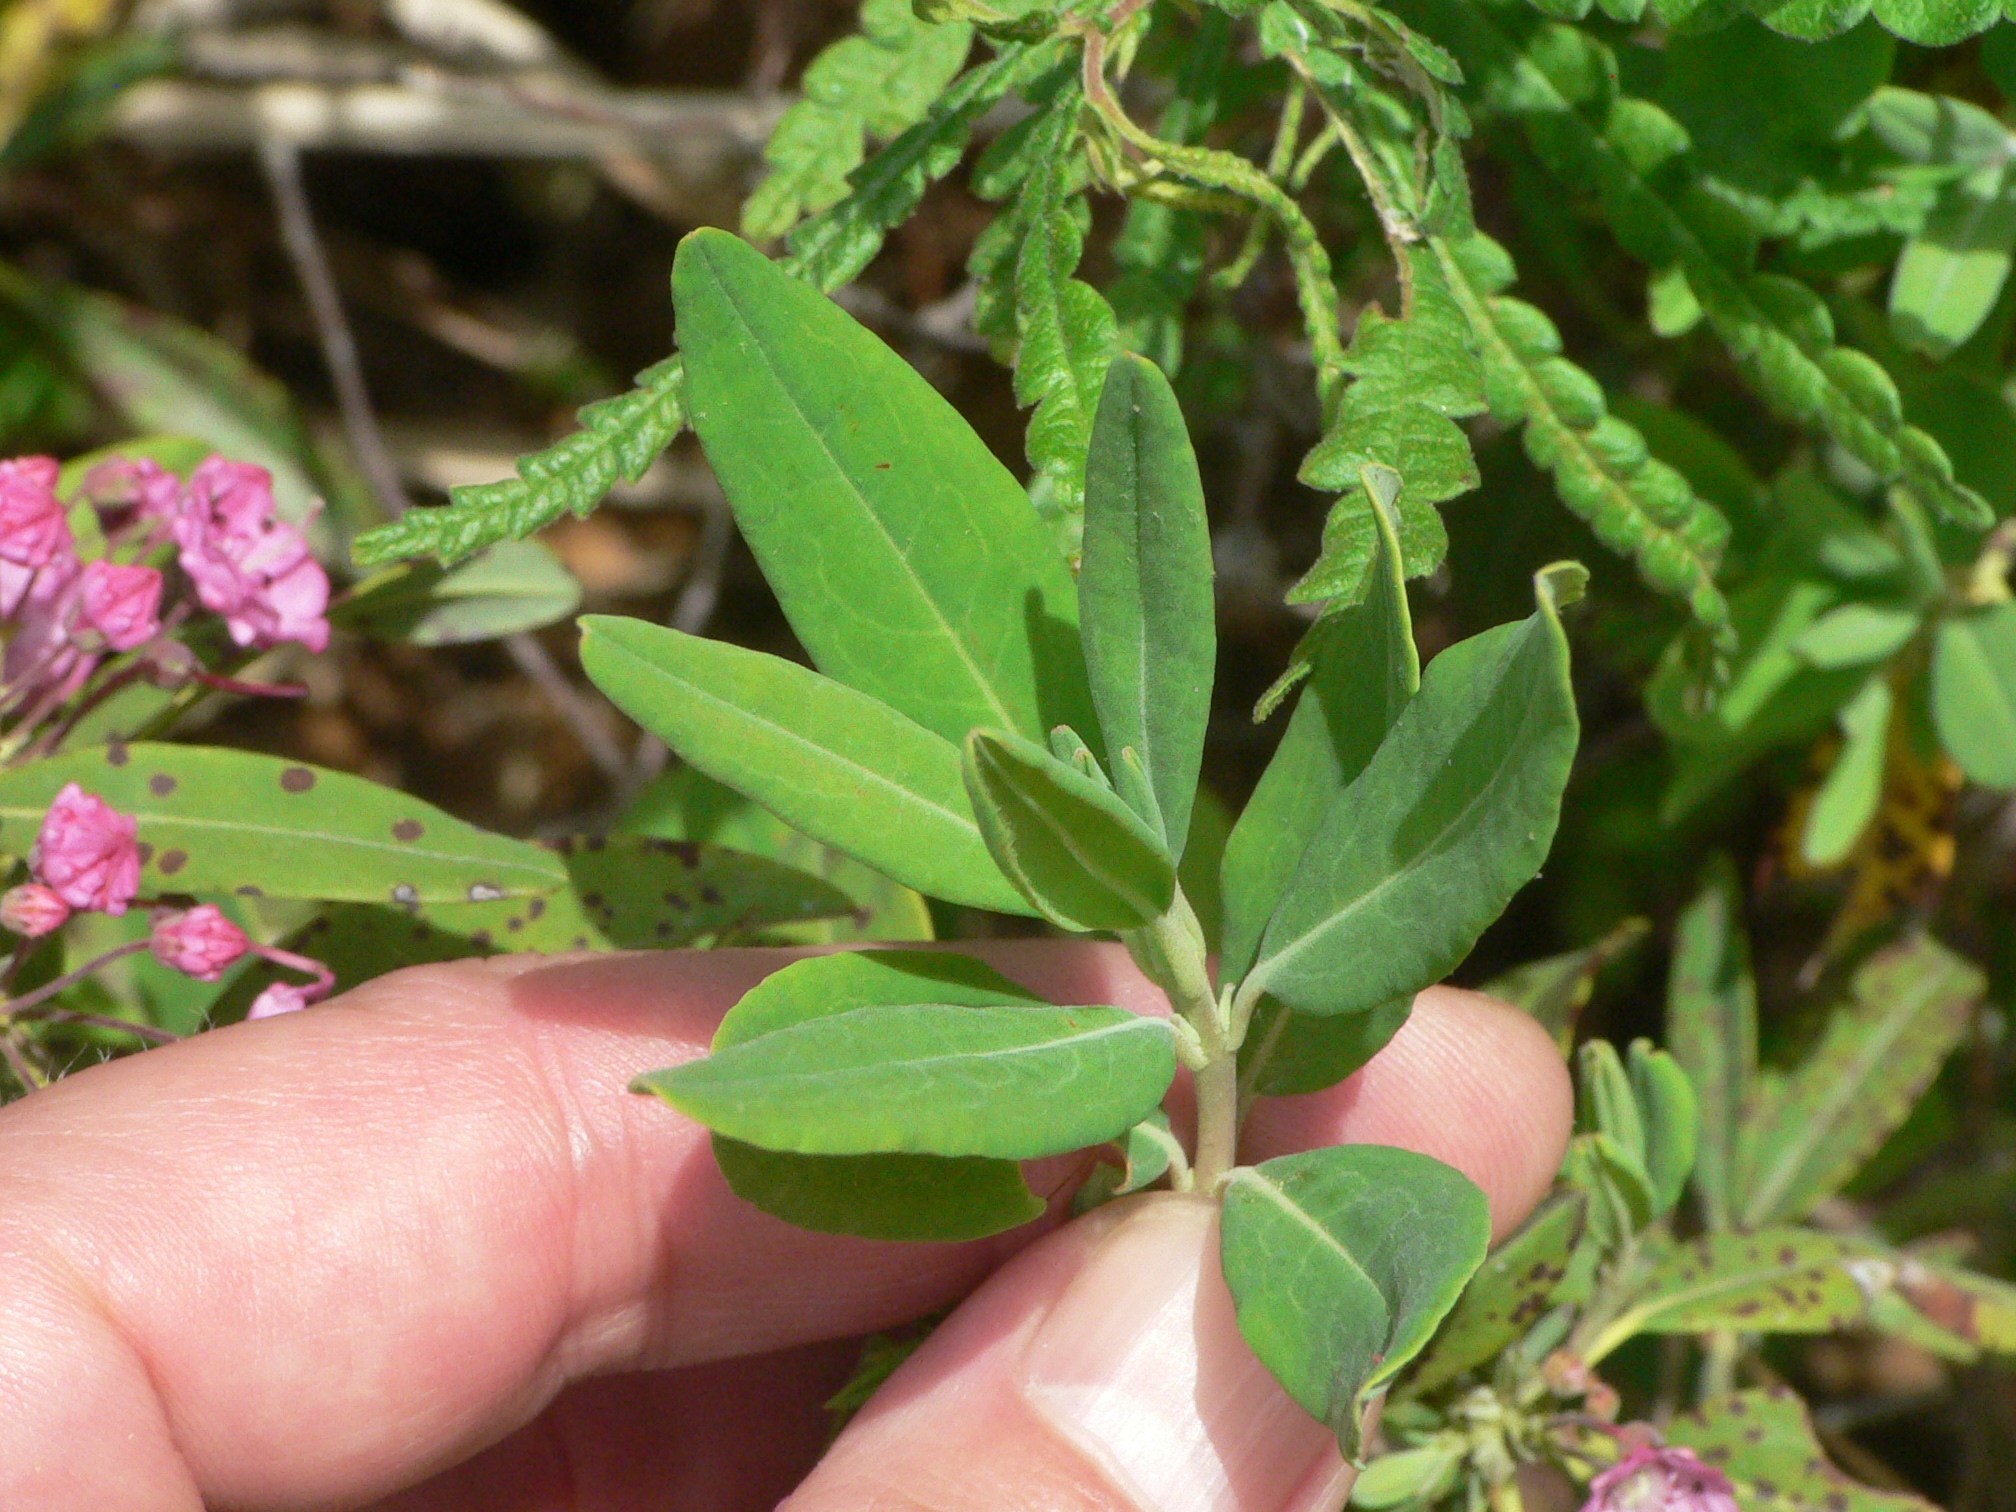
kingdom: Plantae
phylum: Tracheophyta
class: Magnoliopsida
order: Ericales
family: Ericaceae
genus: Kalmia
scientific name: Kalmia angustifolia
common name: Sheep-laurel
